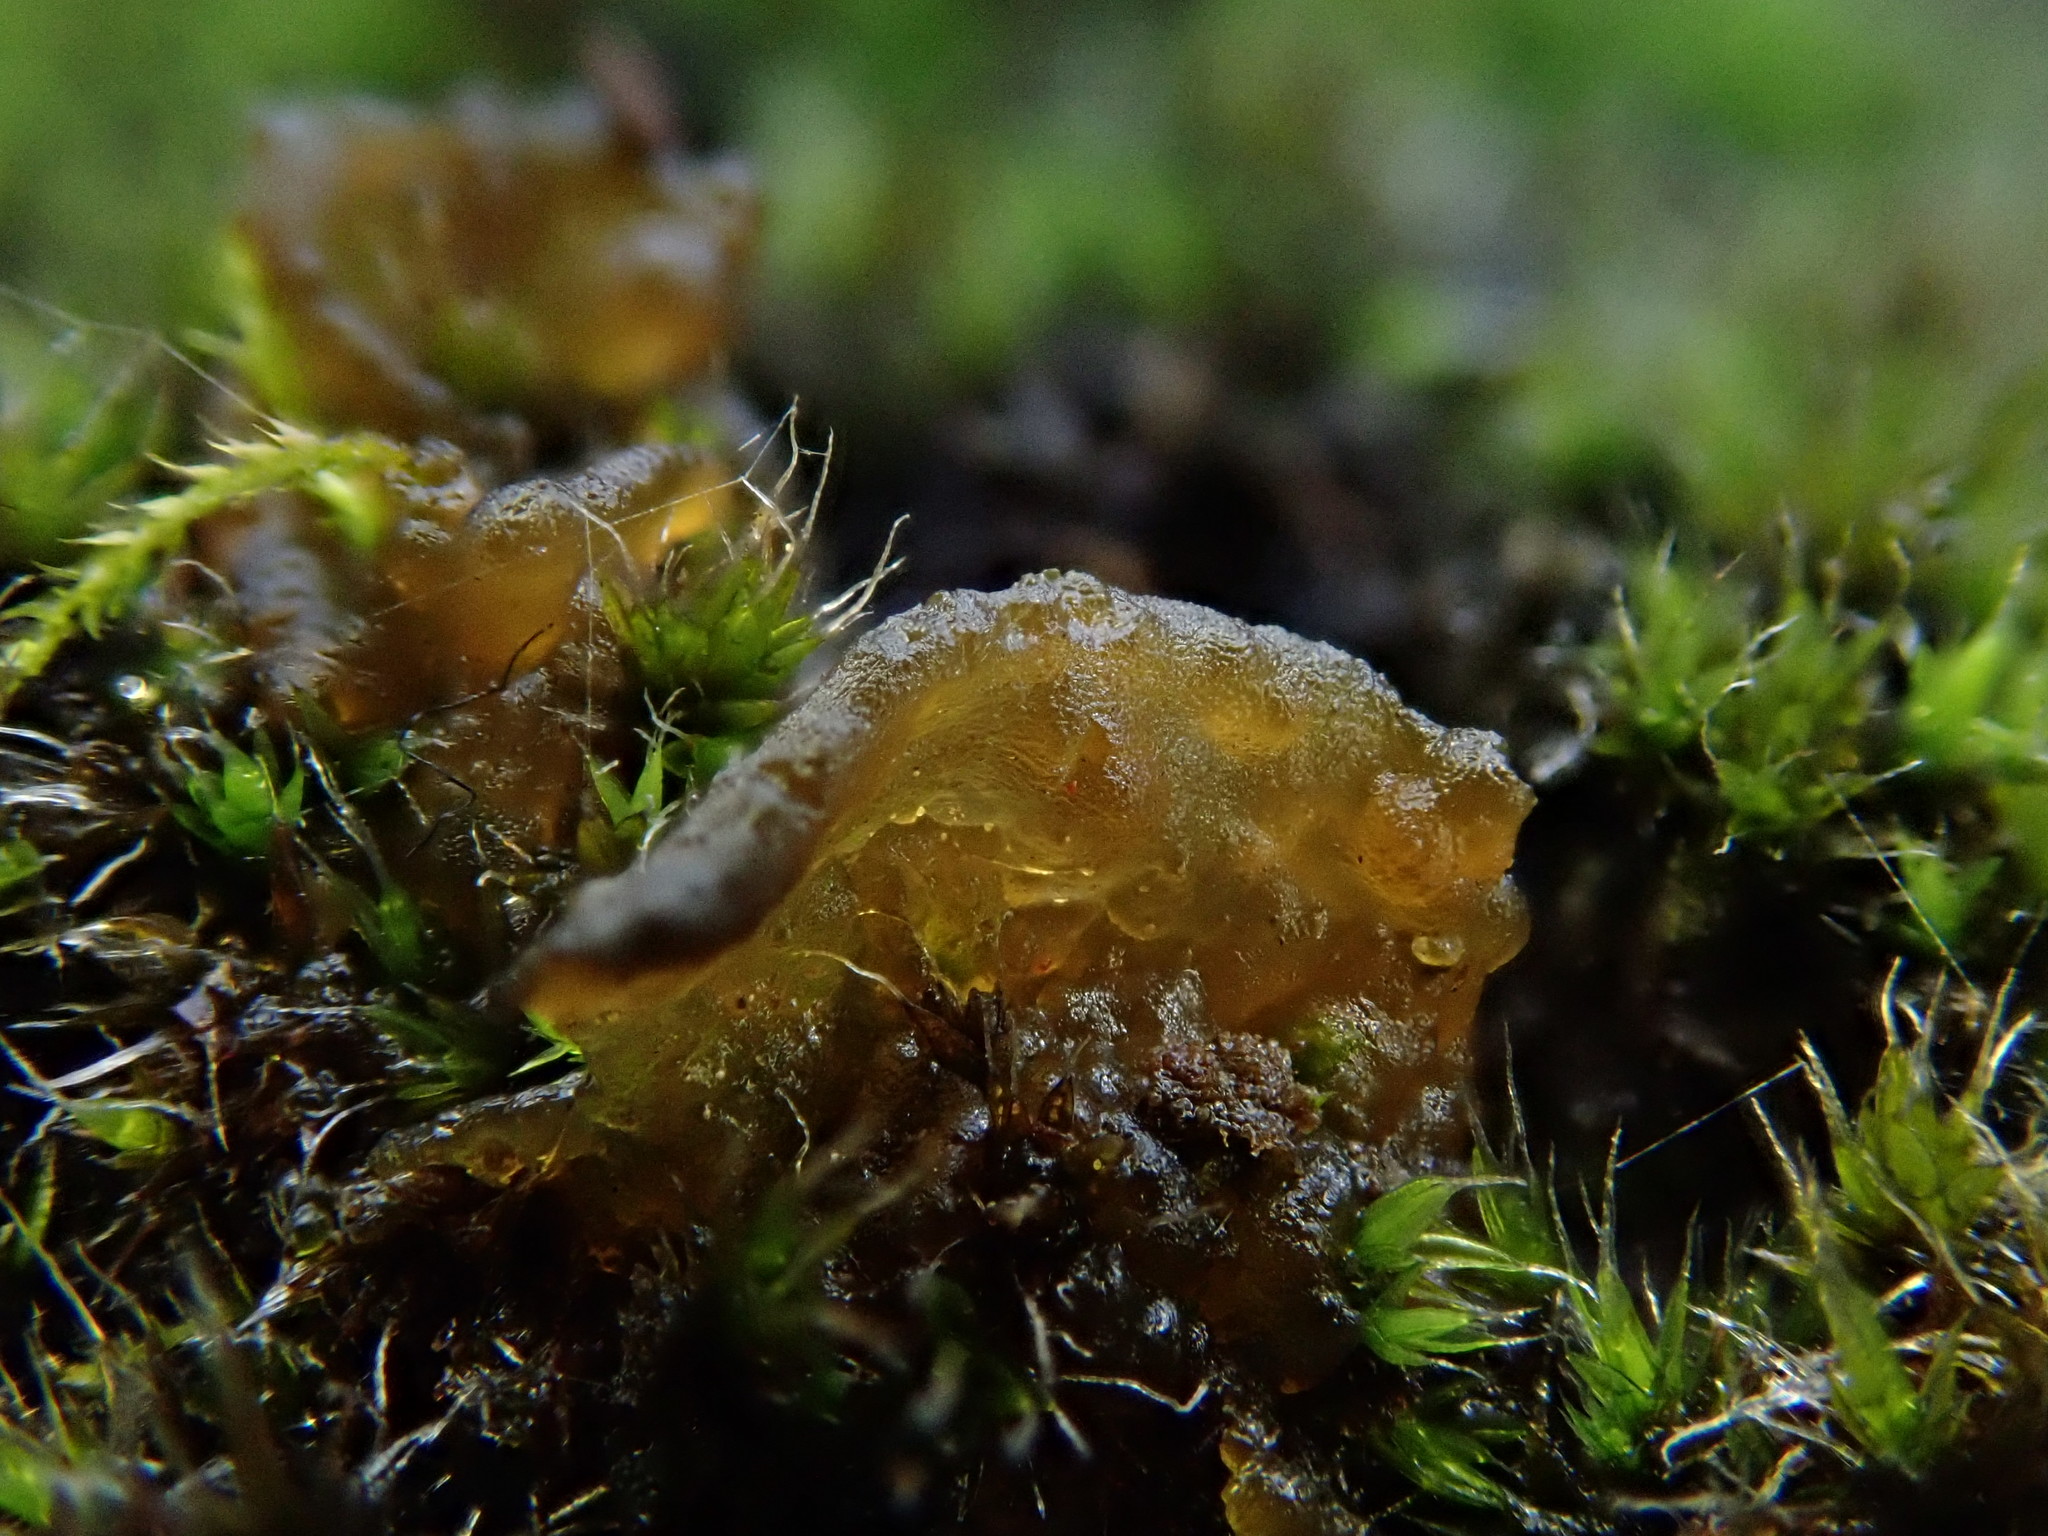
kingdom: Bacteria
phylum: Cyanobacteria
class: Cyanobacteriia
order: Cyanobacteriales
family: Nostocaceae
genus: Nostoc
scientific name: Nostoc commune
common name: Star jelly
